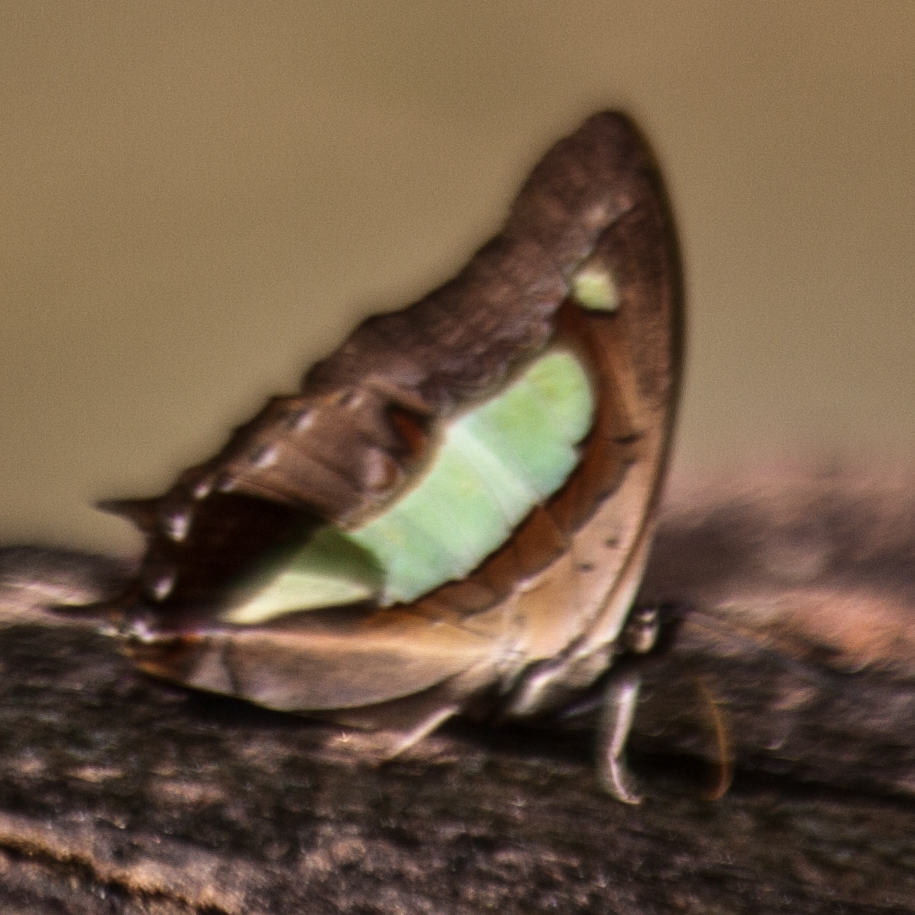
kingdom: Animalia
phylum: Arthropoda
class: Insecta
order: Lepidoptera
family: Nymphalidae
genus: Polyura
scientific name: Polyura athamas
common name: Common nawab
